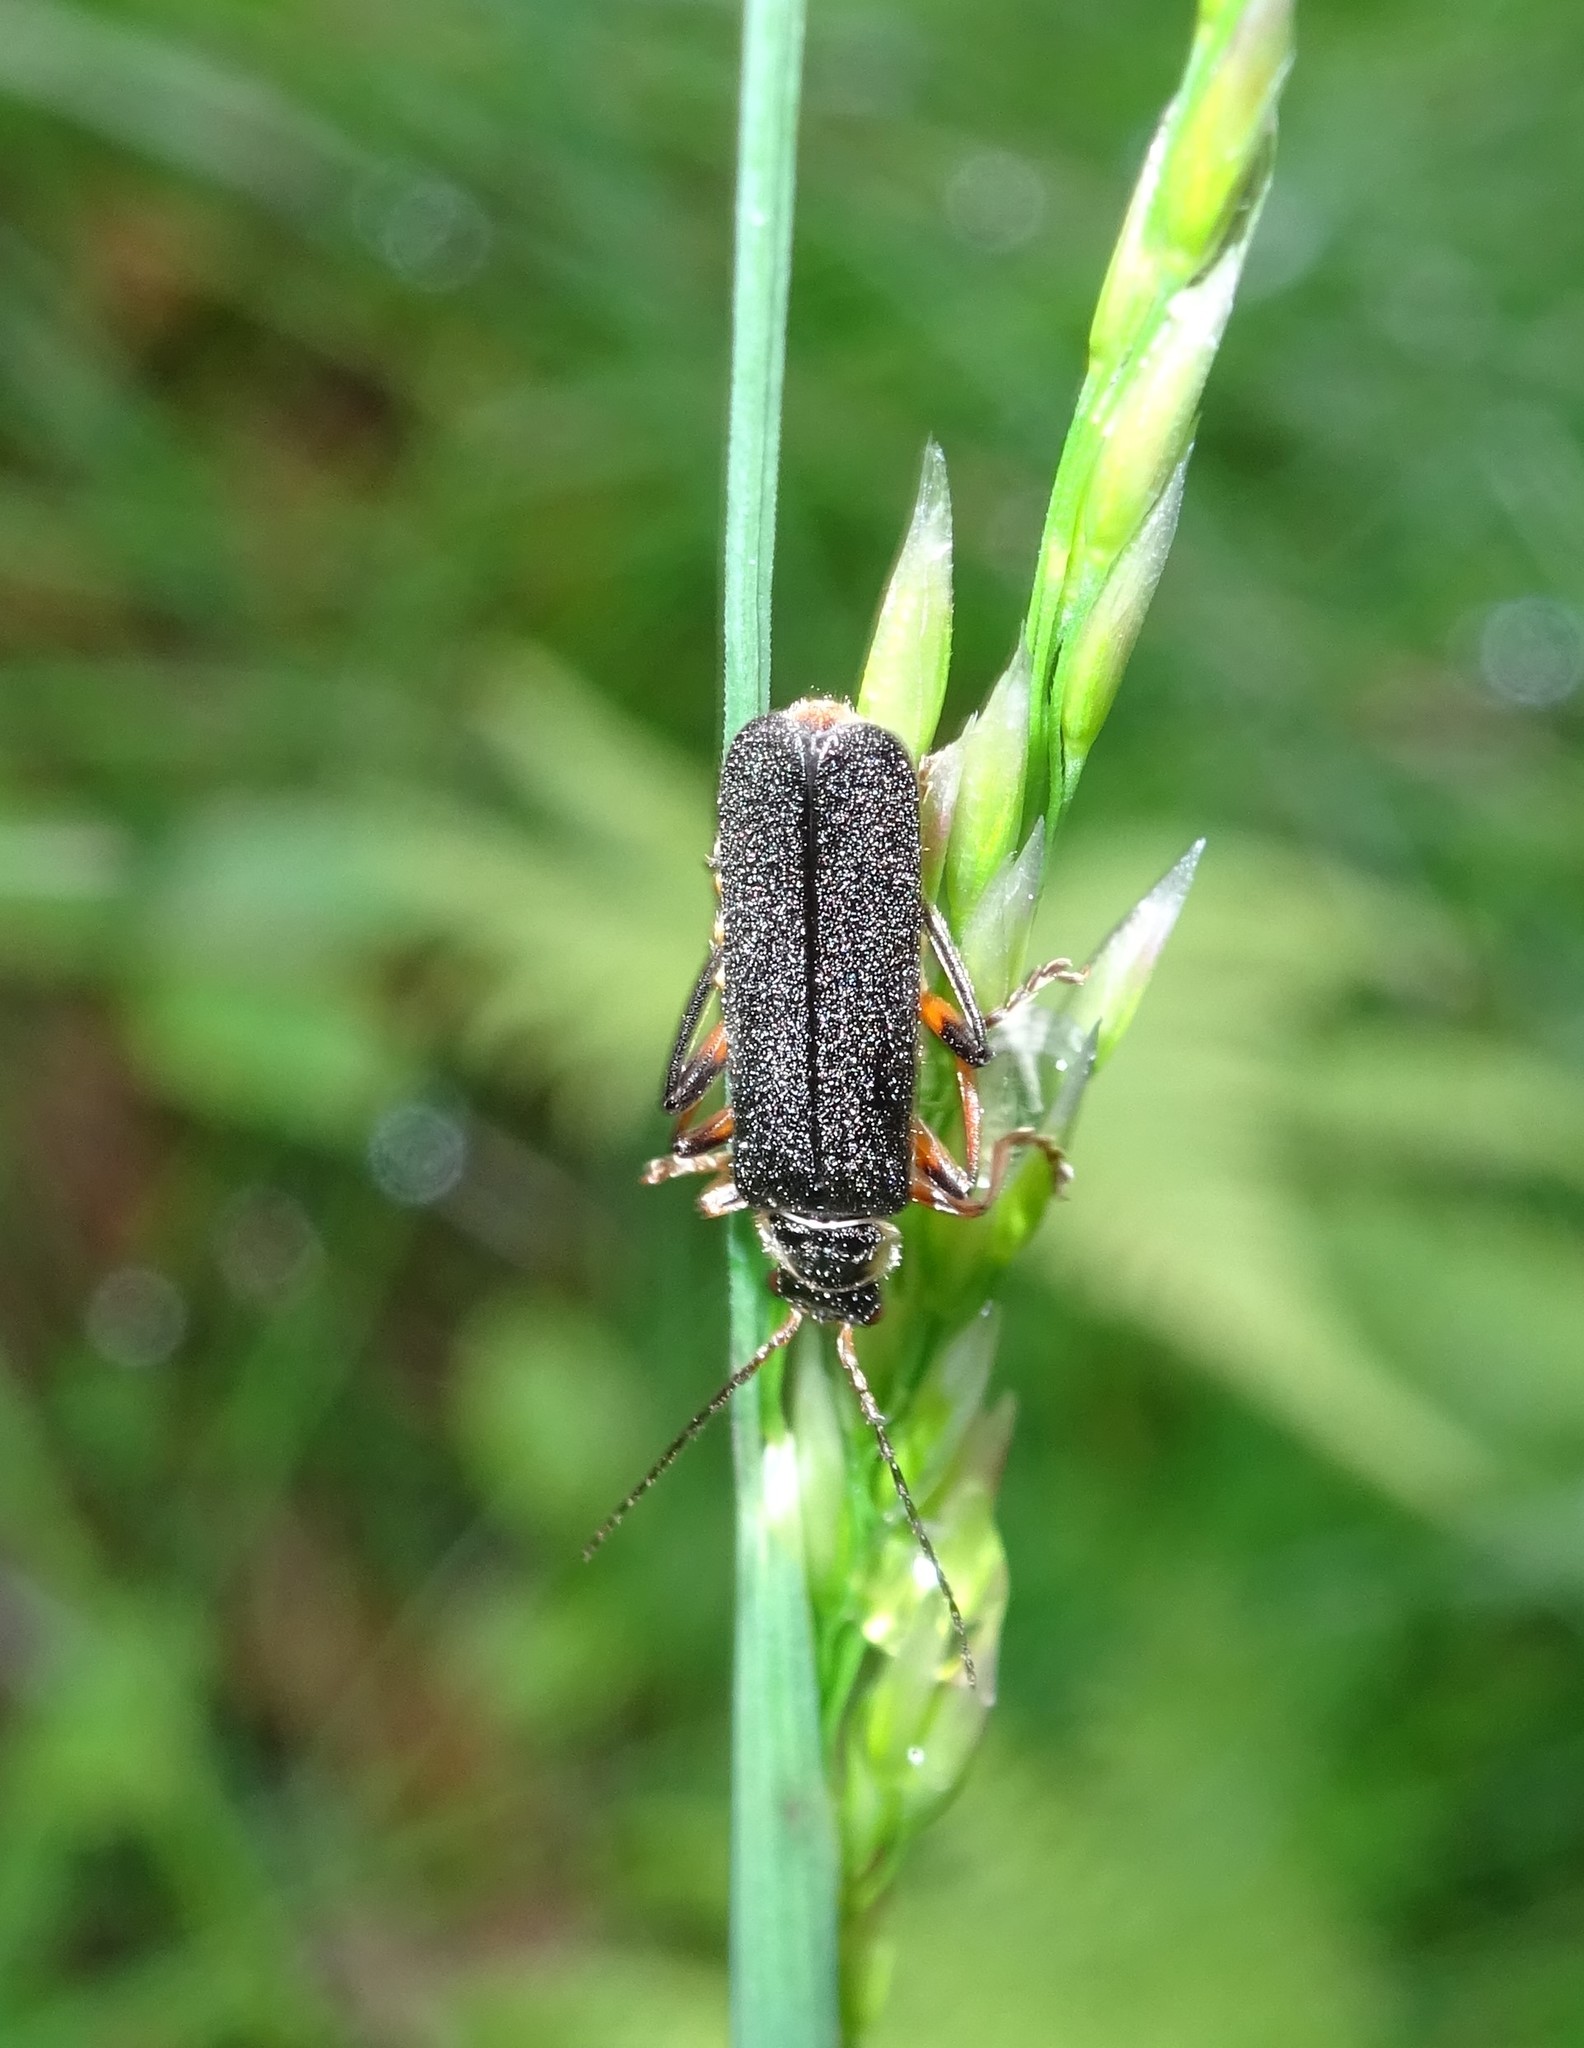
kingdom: Animalia
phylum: Arthropoda
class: Insecta
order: Coleoptera
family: Cantharidae
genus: Cantharis
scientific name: Cantharis nigricans
